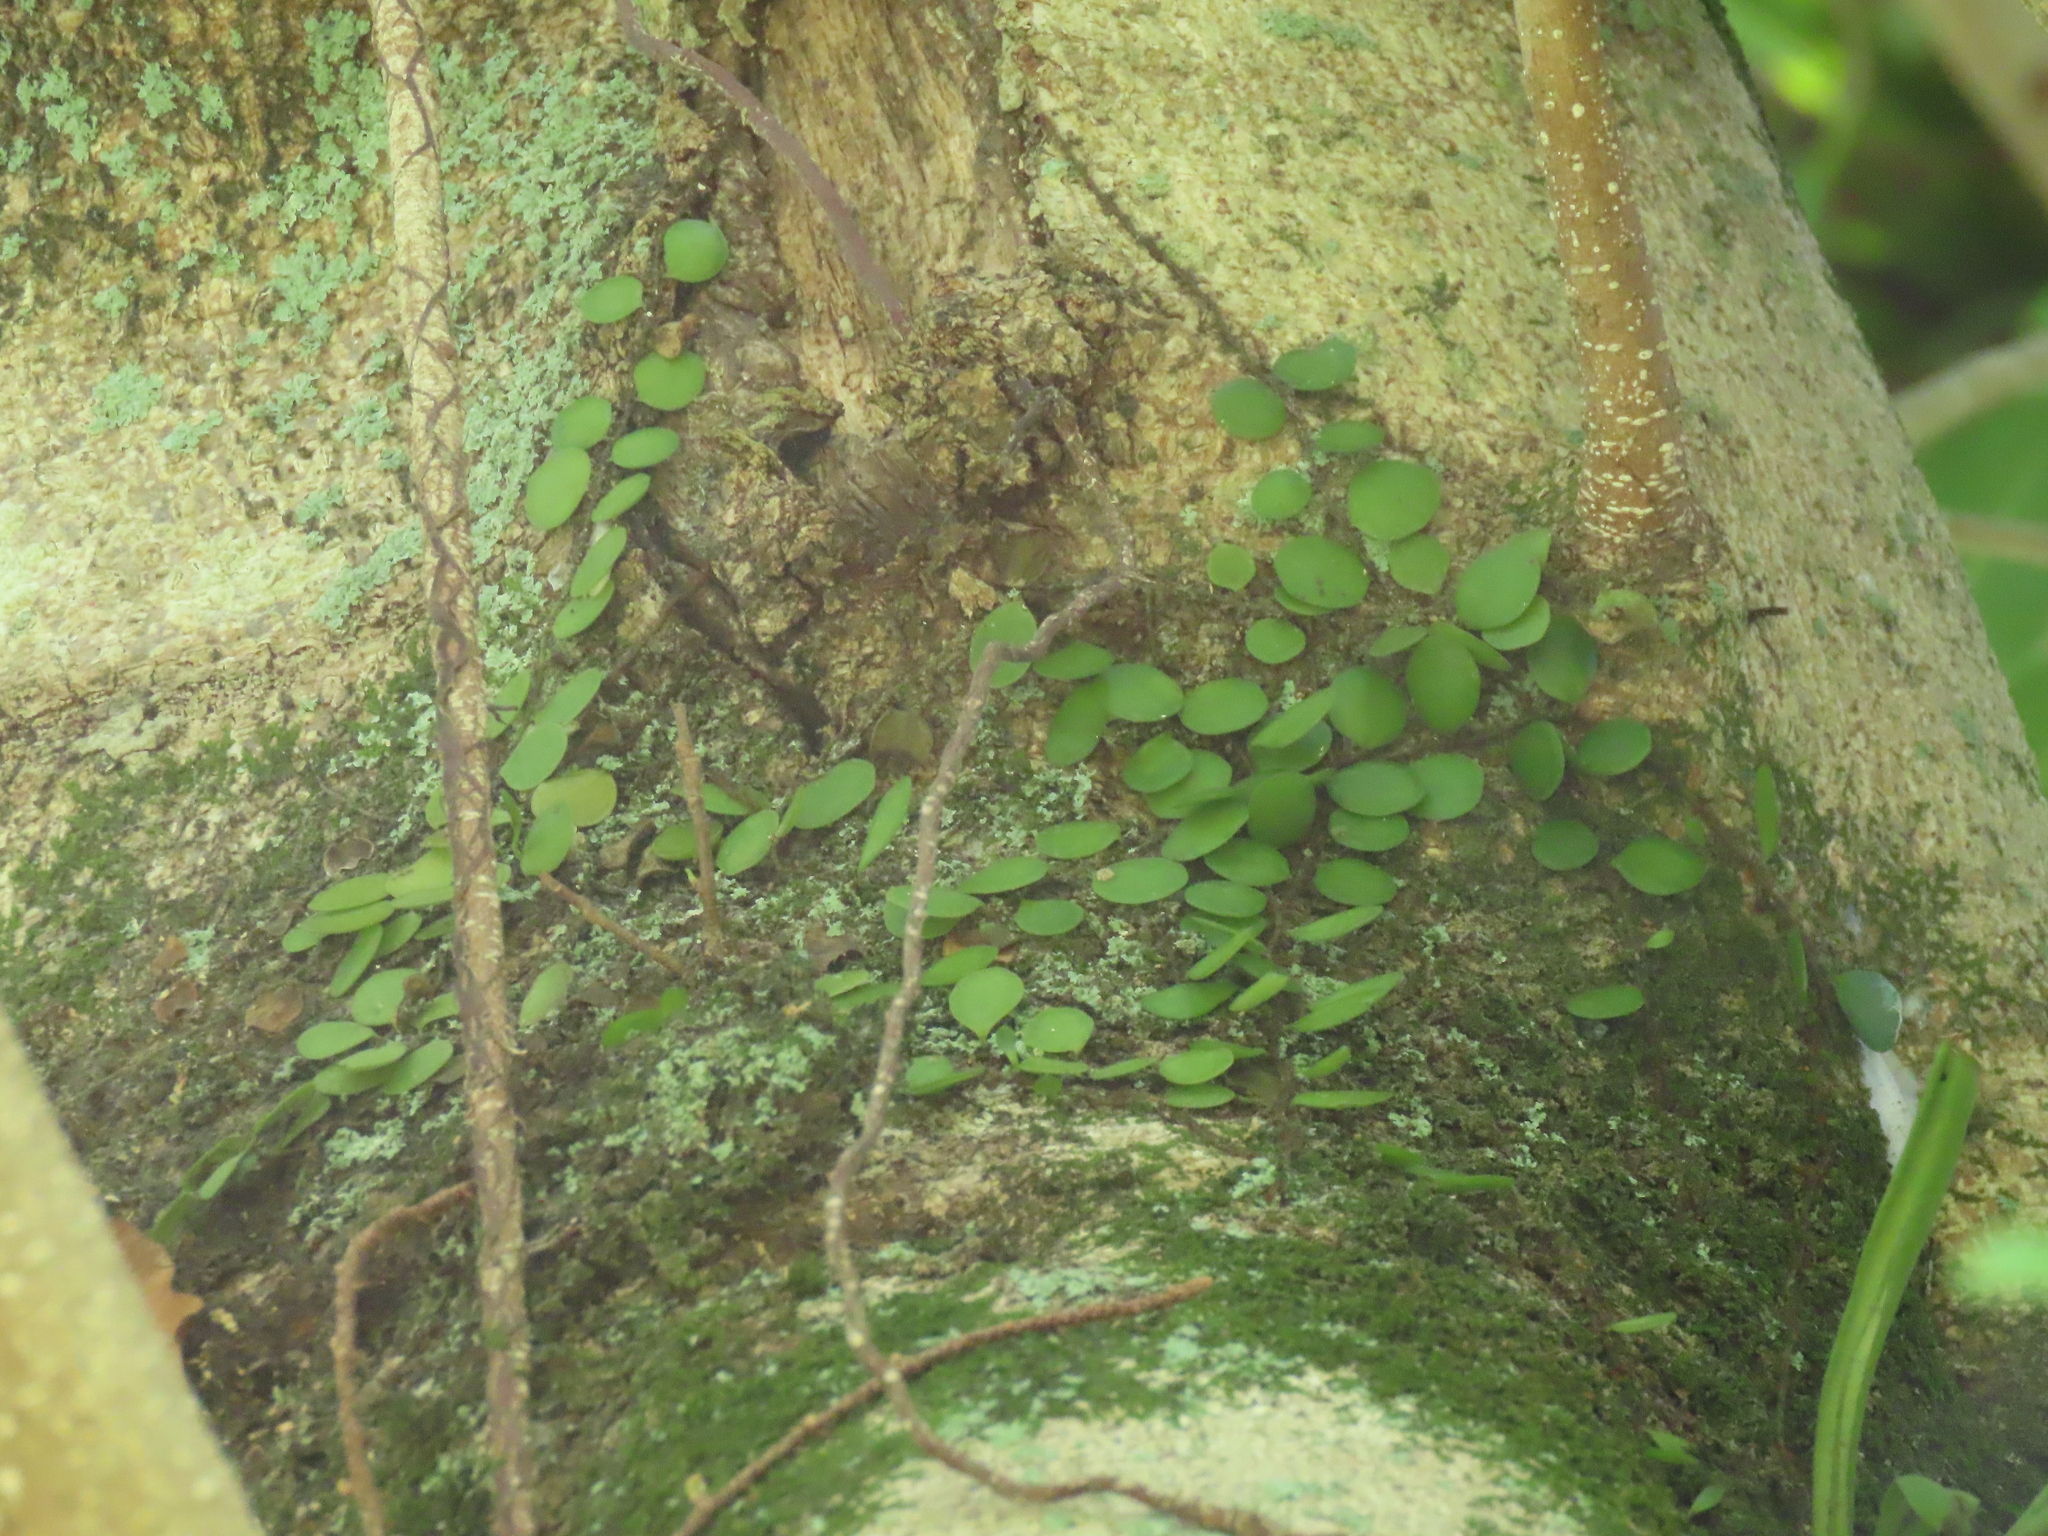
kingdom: Plantae
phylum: Tracheophyta
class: Polypodiopsida
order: Polypodiales
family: Polypodiaceae
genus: Lepisorus
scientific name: Lepisorus microphyllus
